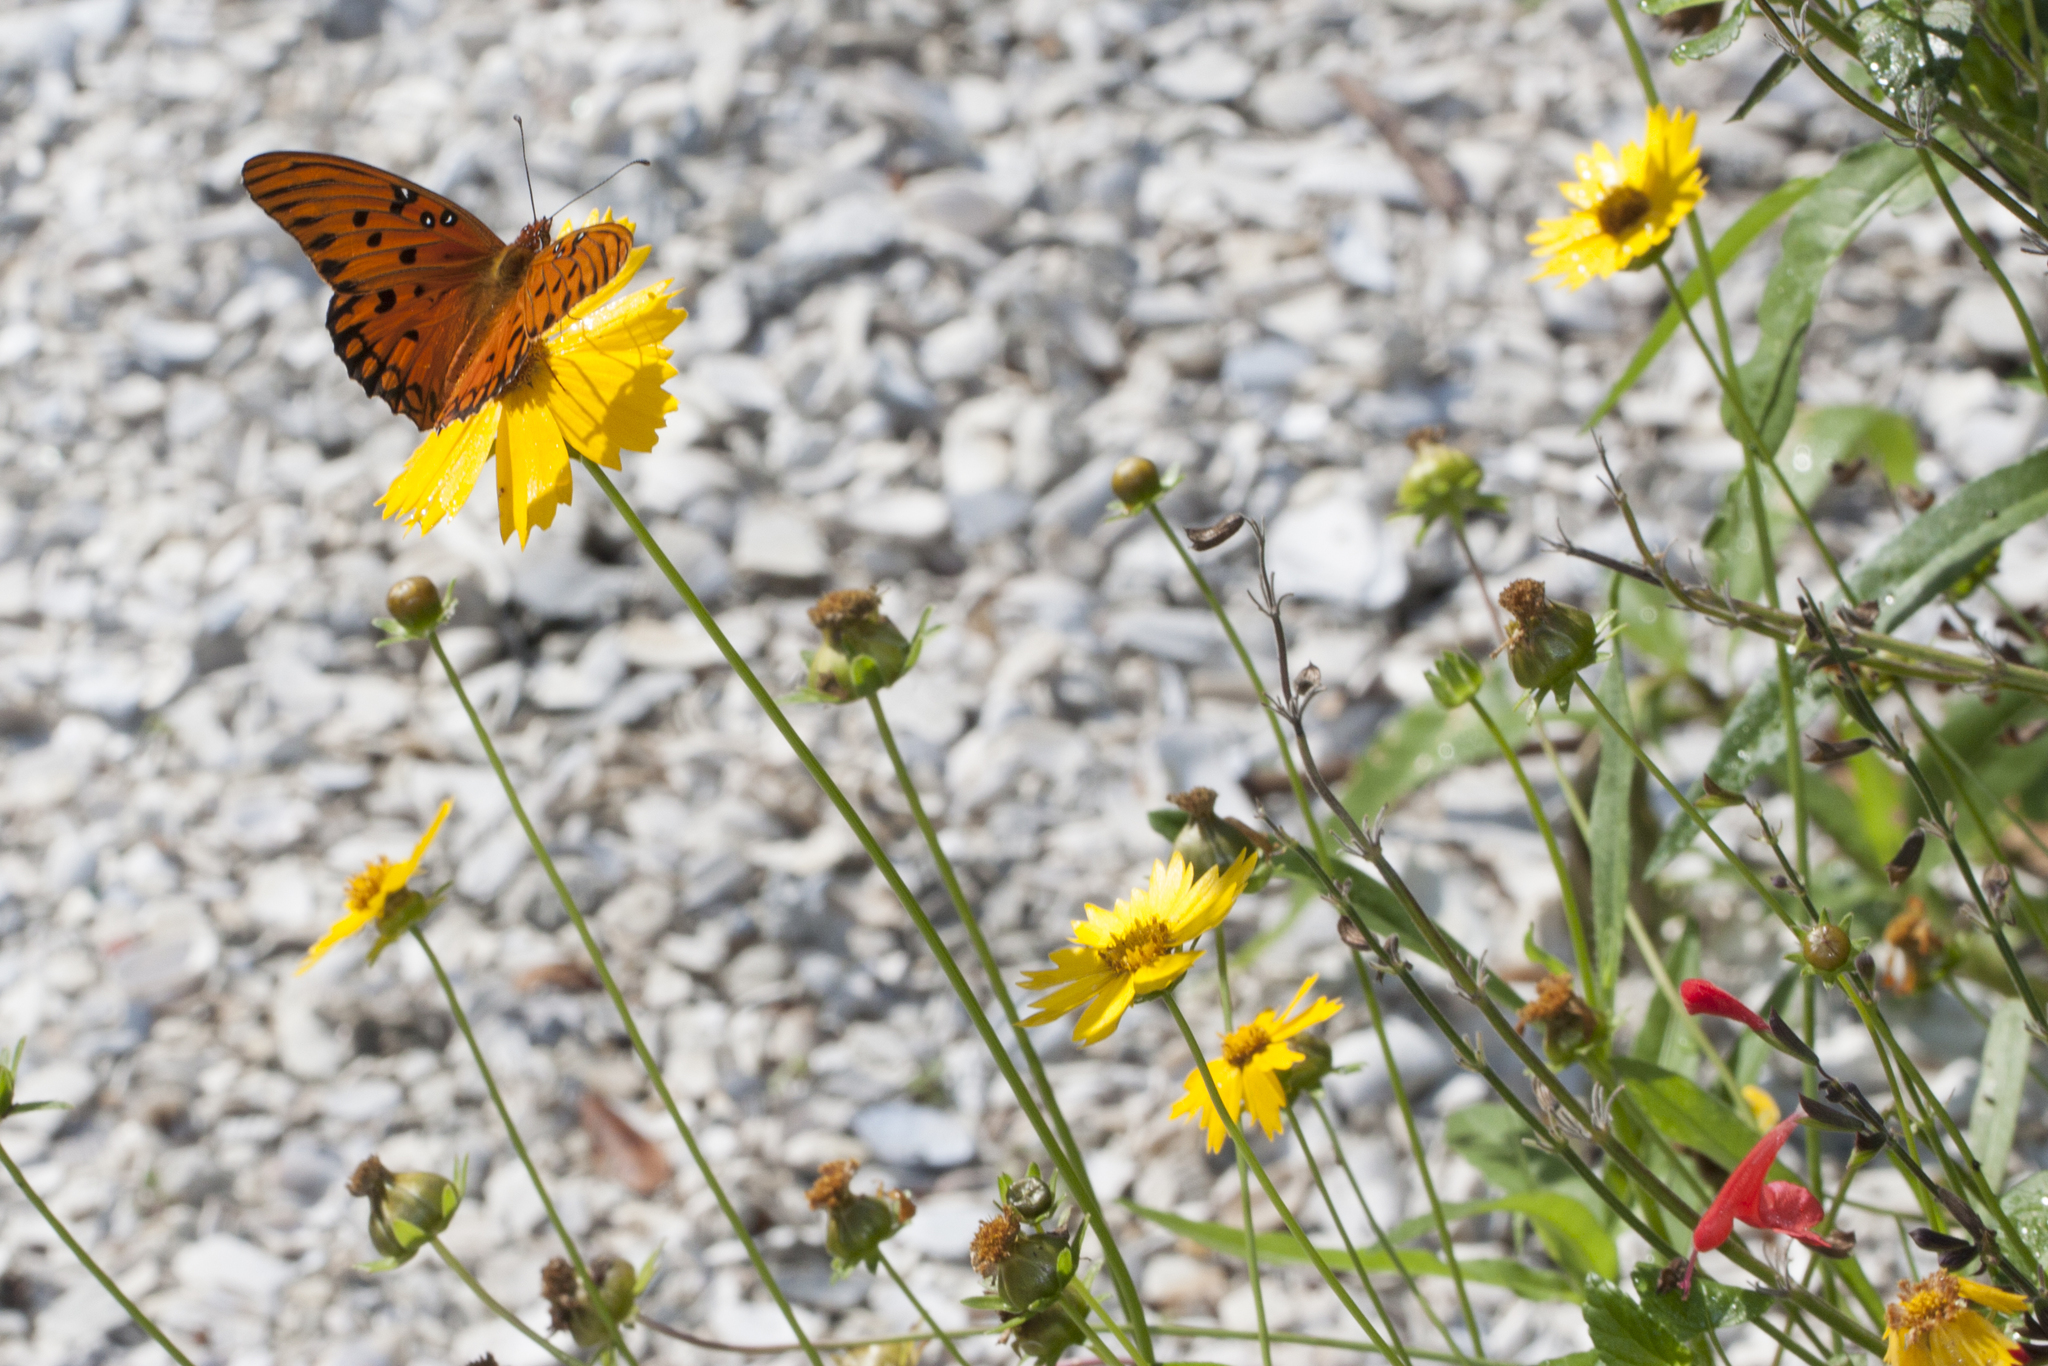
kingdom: Animalia
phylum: Arthropoda
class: Insecta
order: Lepidoptera
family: Nymphalidae
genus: Dione
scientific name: Dione vanillae
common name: Gulf fritillary
